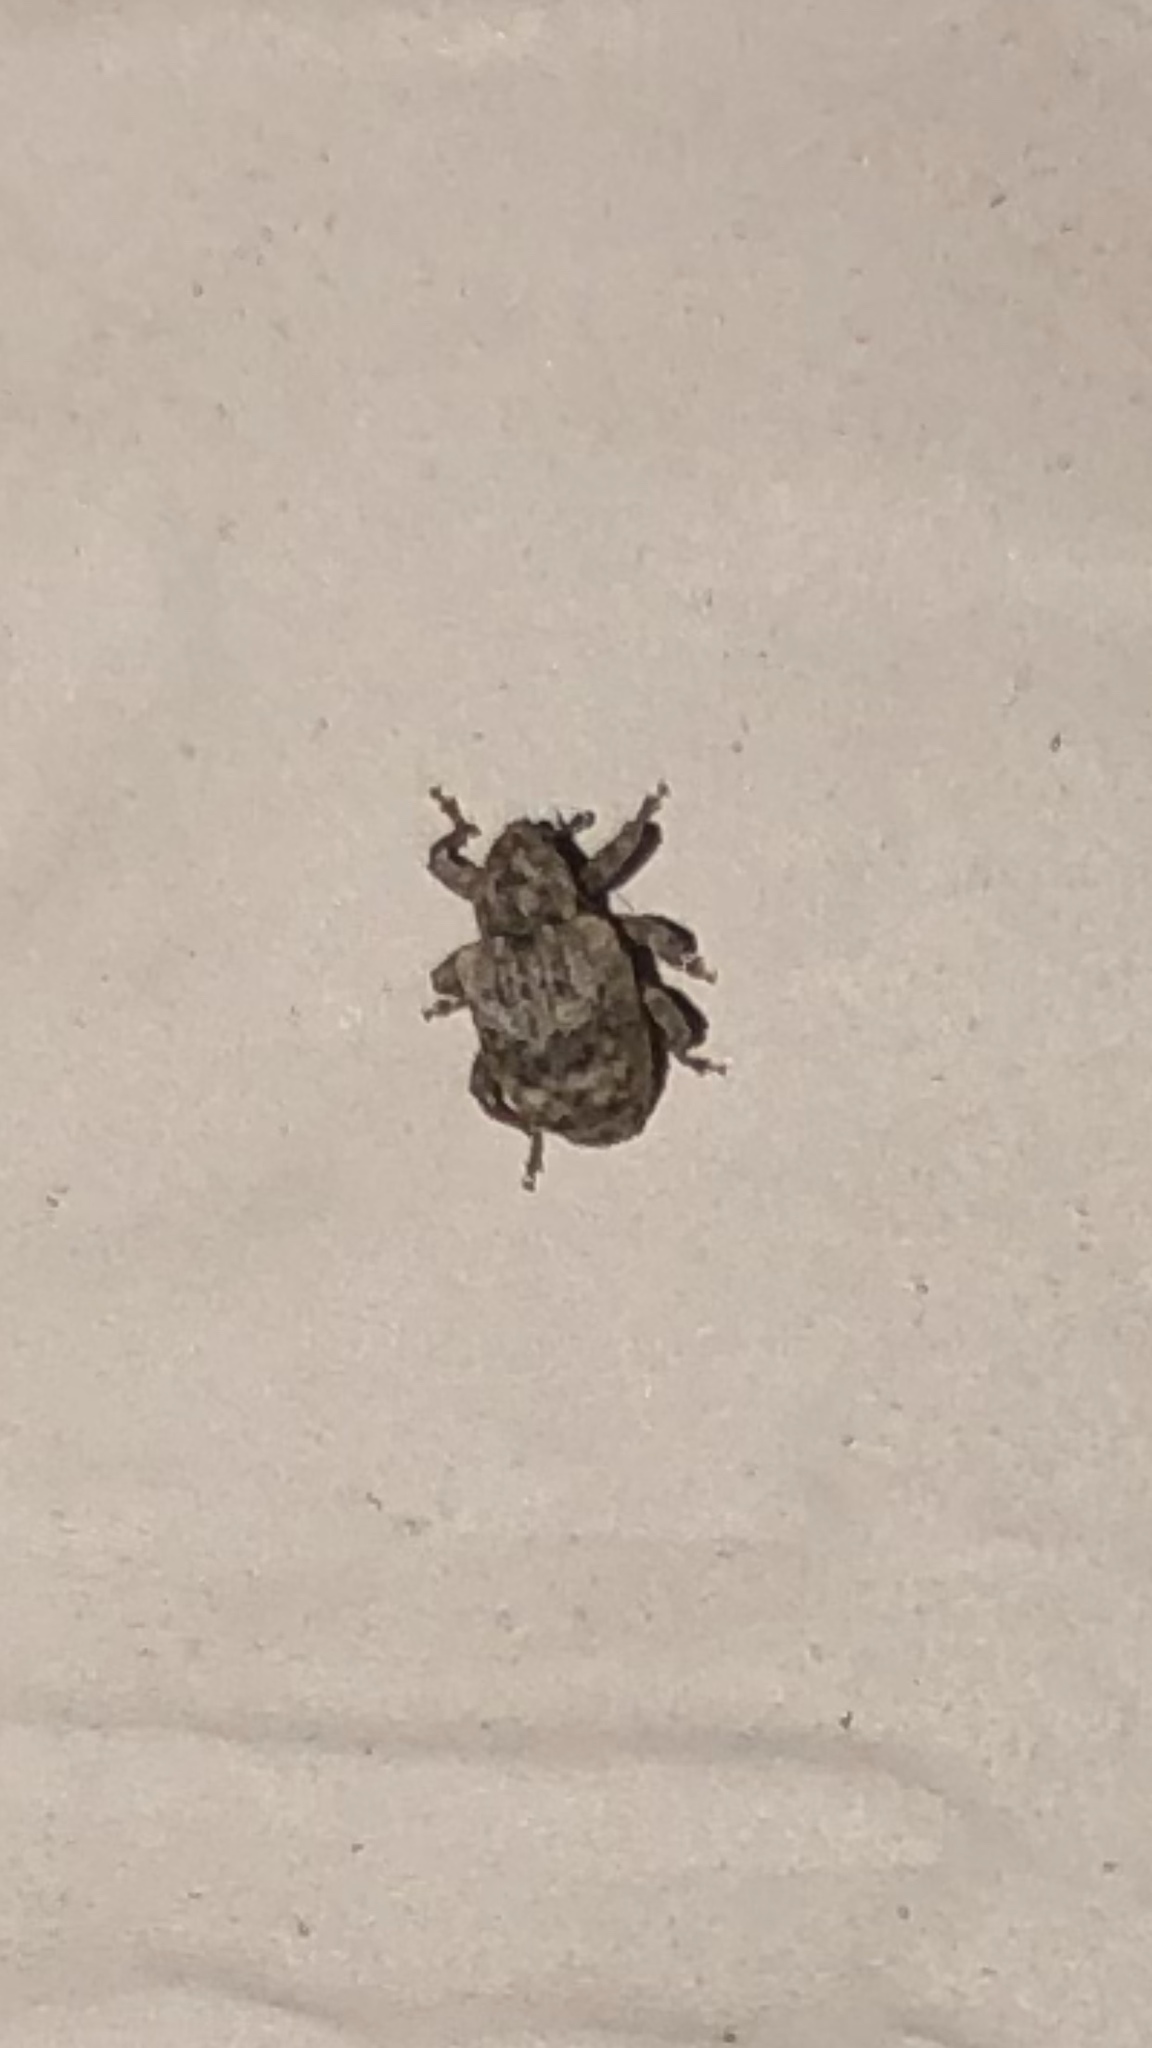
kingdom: Animalia
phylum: Arthropoda
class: Insecta
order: Coleoptera
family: Curculionidae
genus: Conotrachelus
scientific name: Conotrachelus recessus
